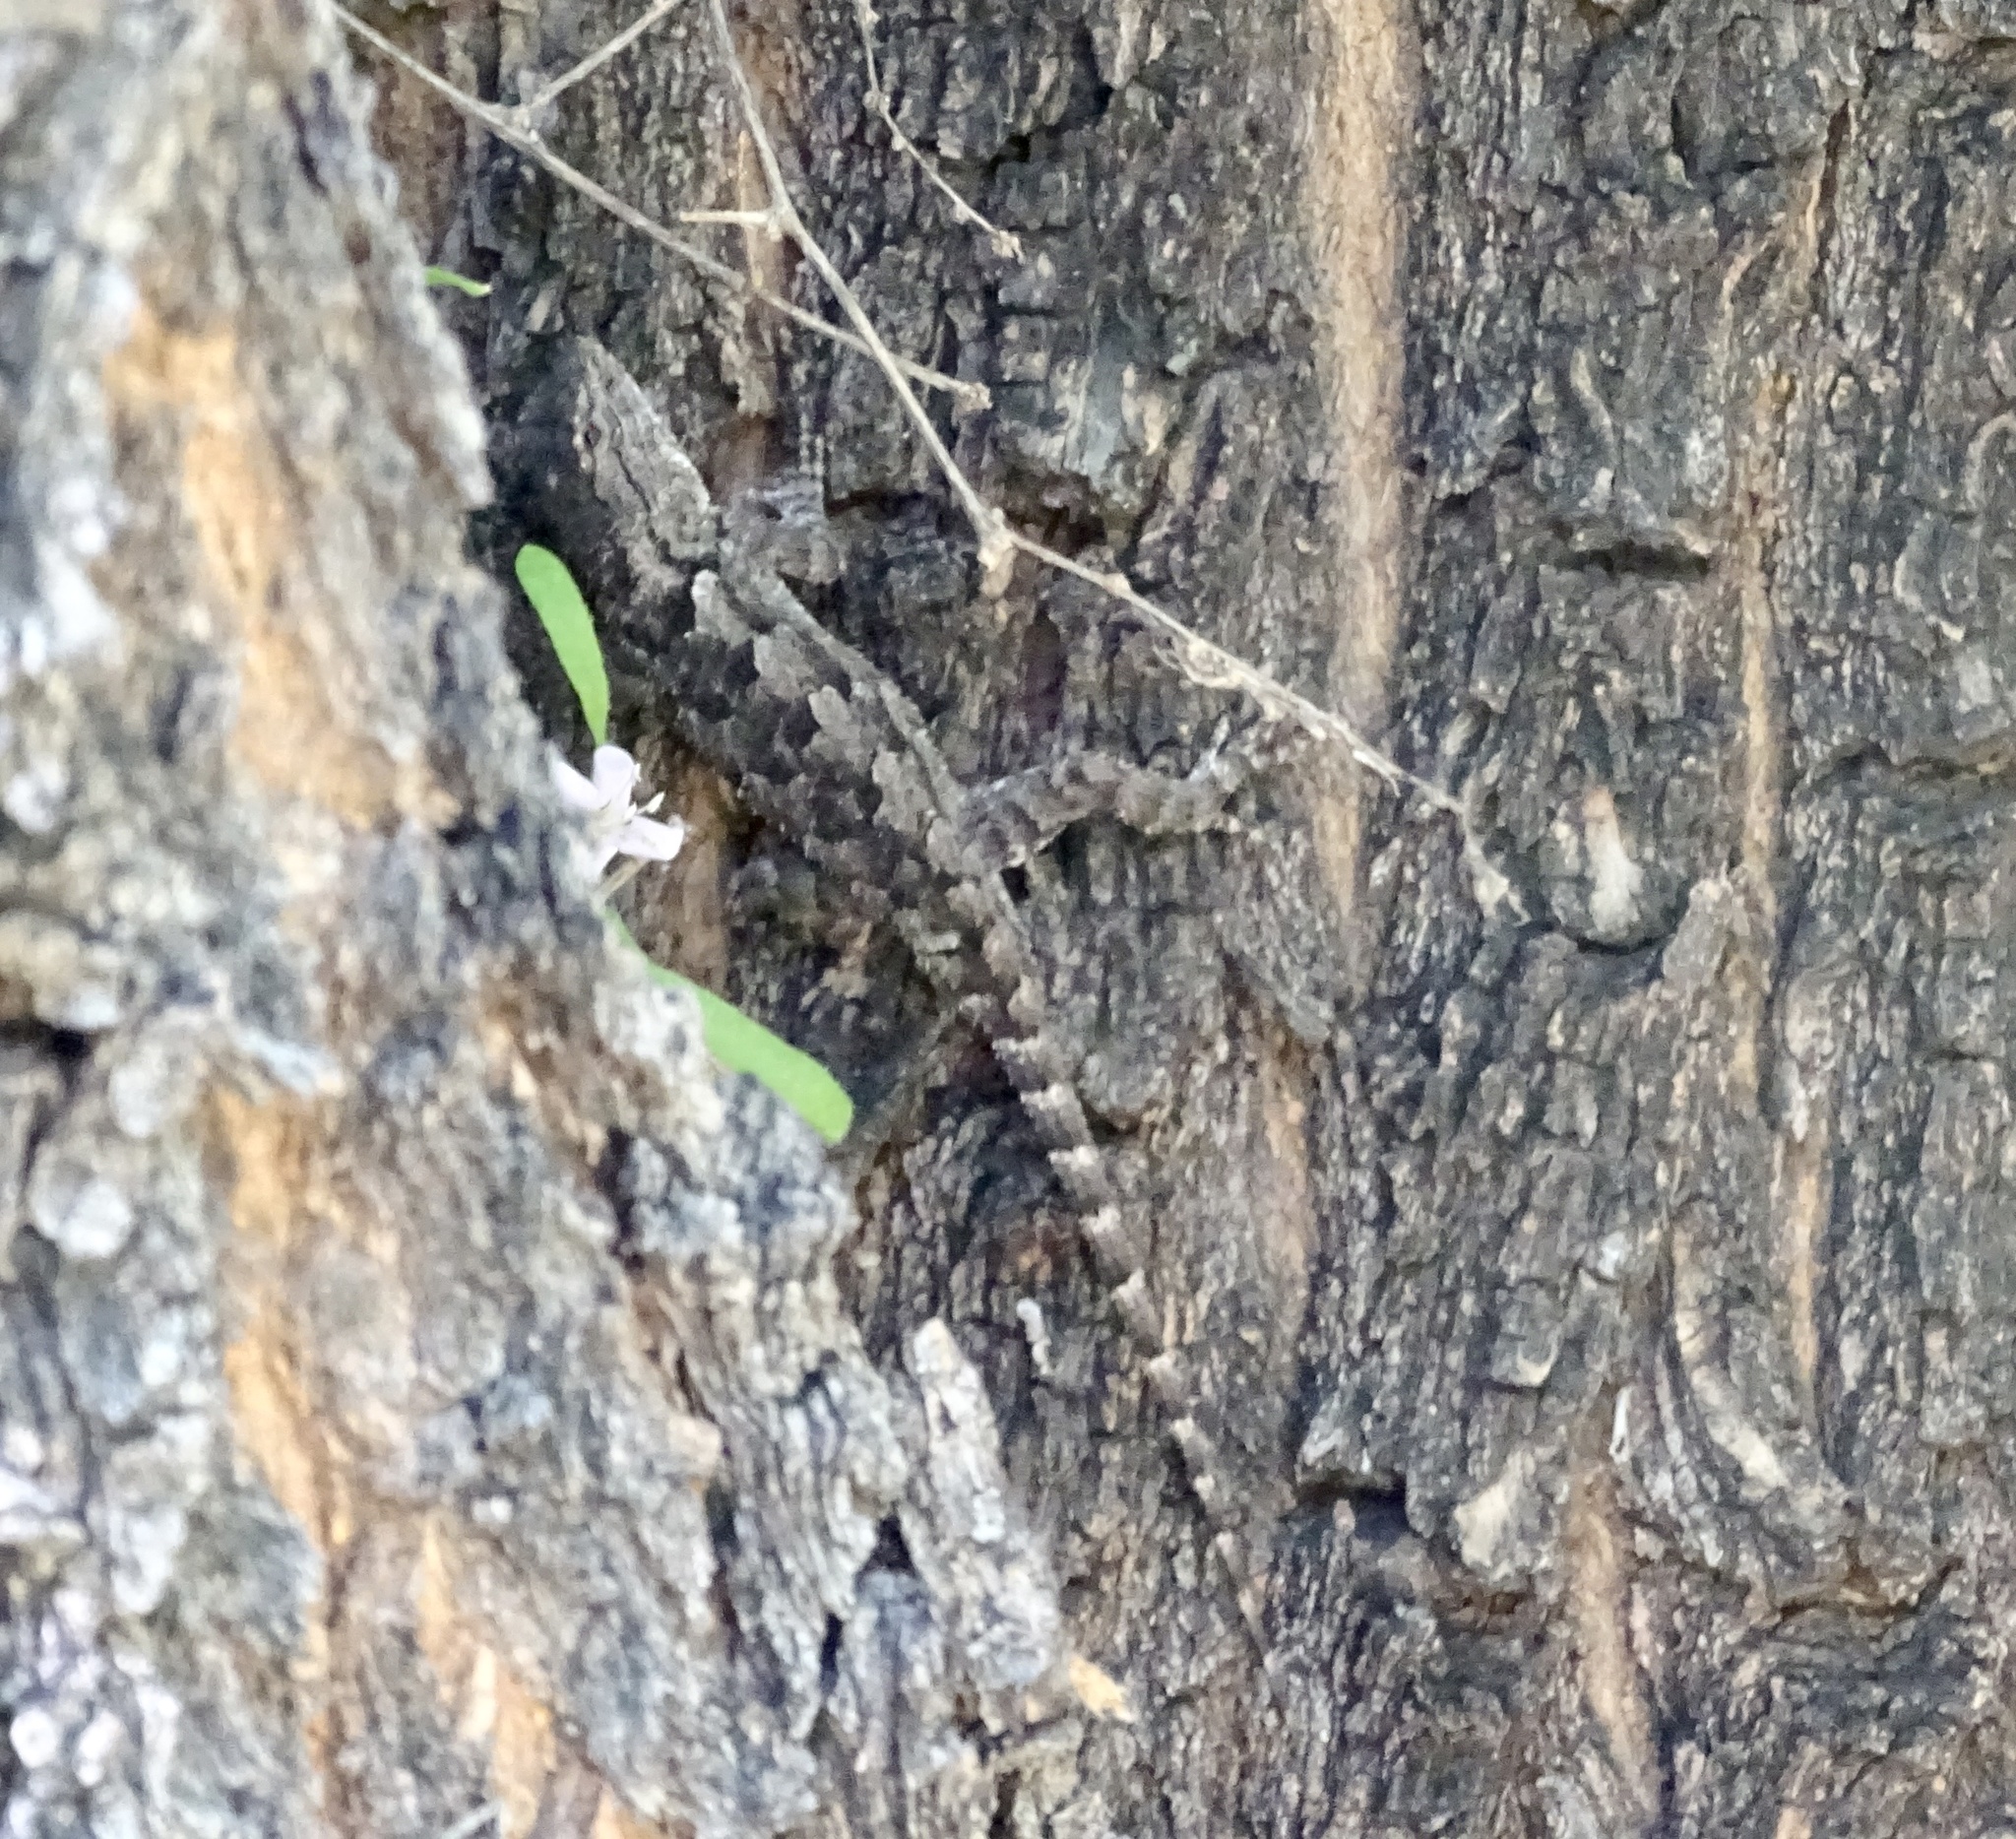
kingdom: Animalia
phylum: Chordata
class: Squamata
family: Phrynosomatidae
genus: Sceloporus
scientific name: Sceloporus clarkii
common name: Clark's spiny lizard
